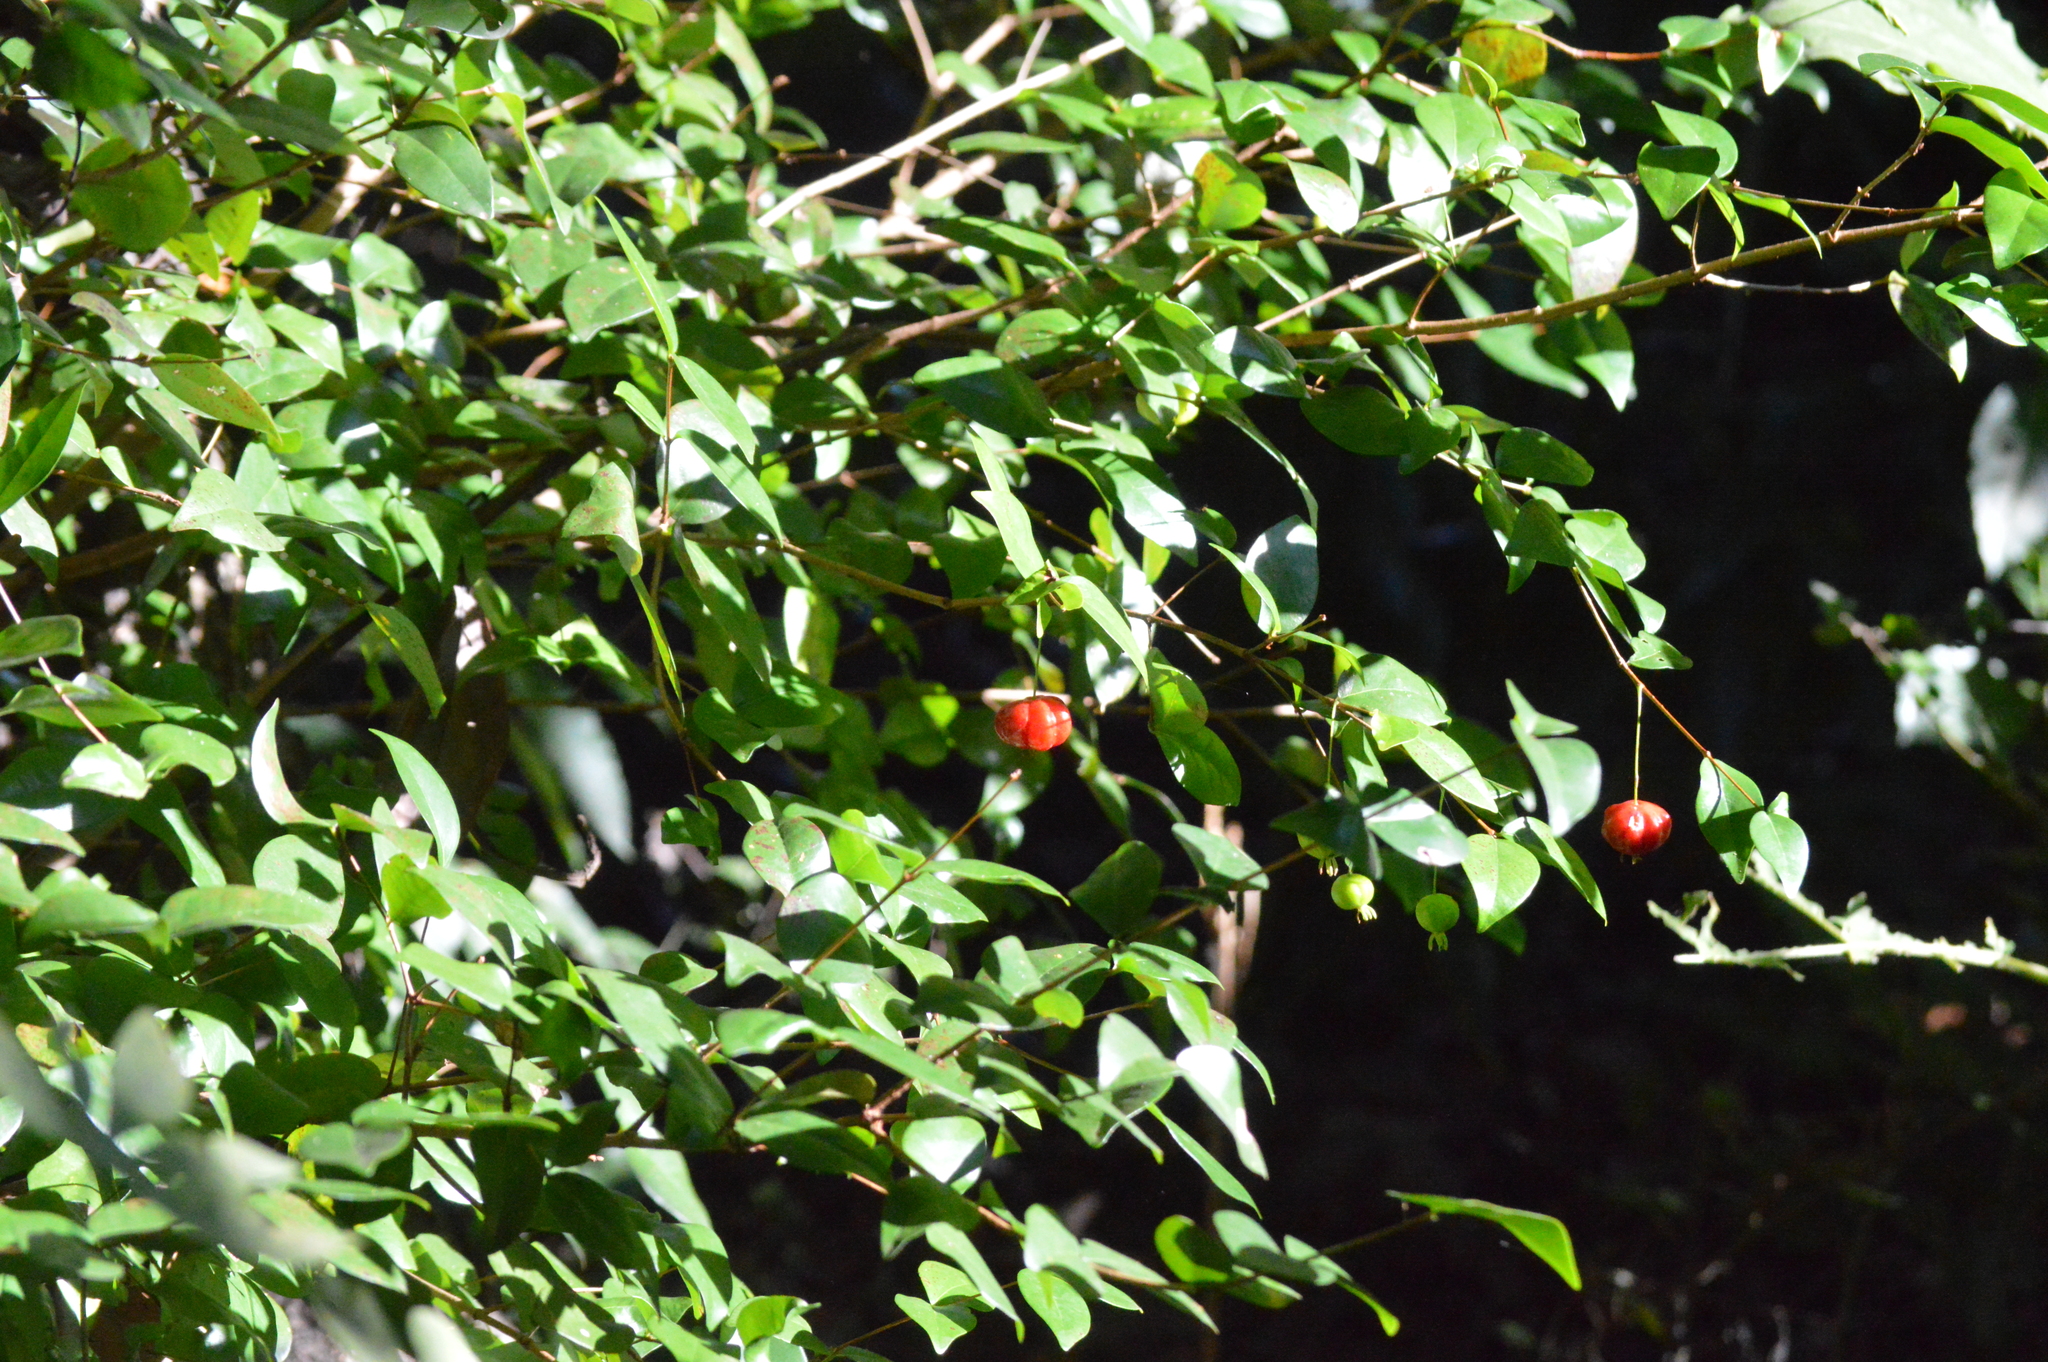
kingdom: Plantae
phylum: Tracheophyta
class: Magnoliopsida
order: Myrtales
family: Myrtaceae
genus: Eugenia
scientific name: Eugenia uniflora
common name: Surinam cherry
